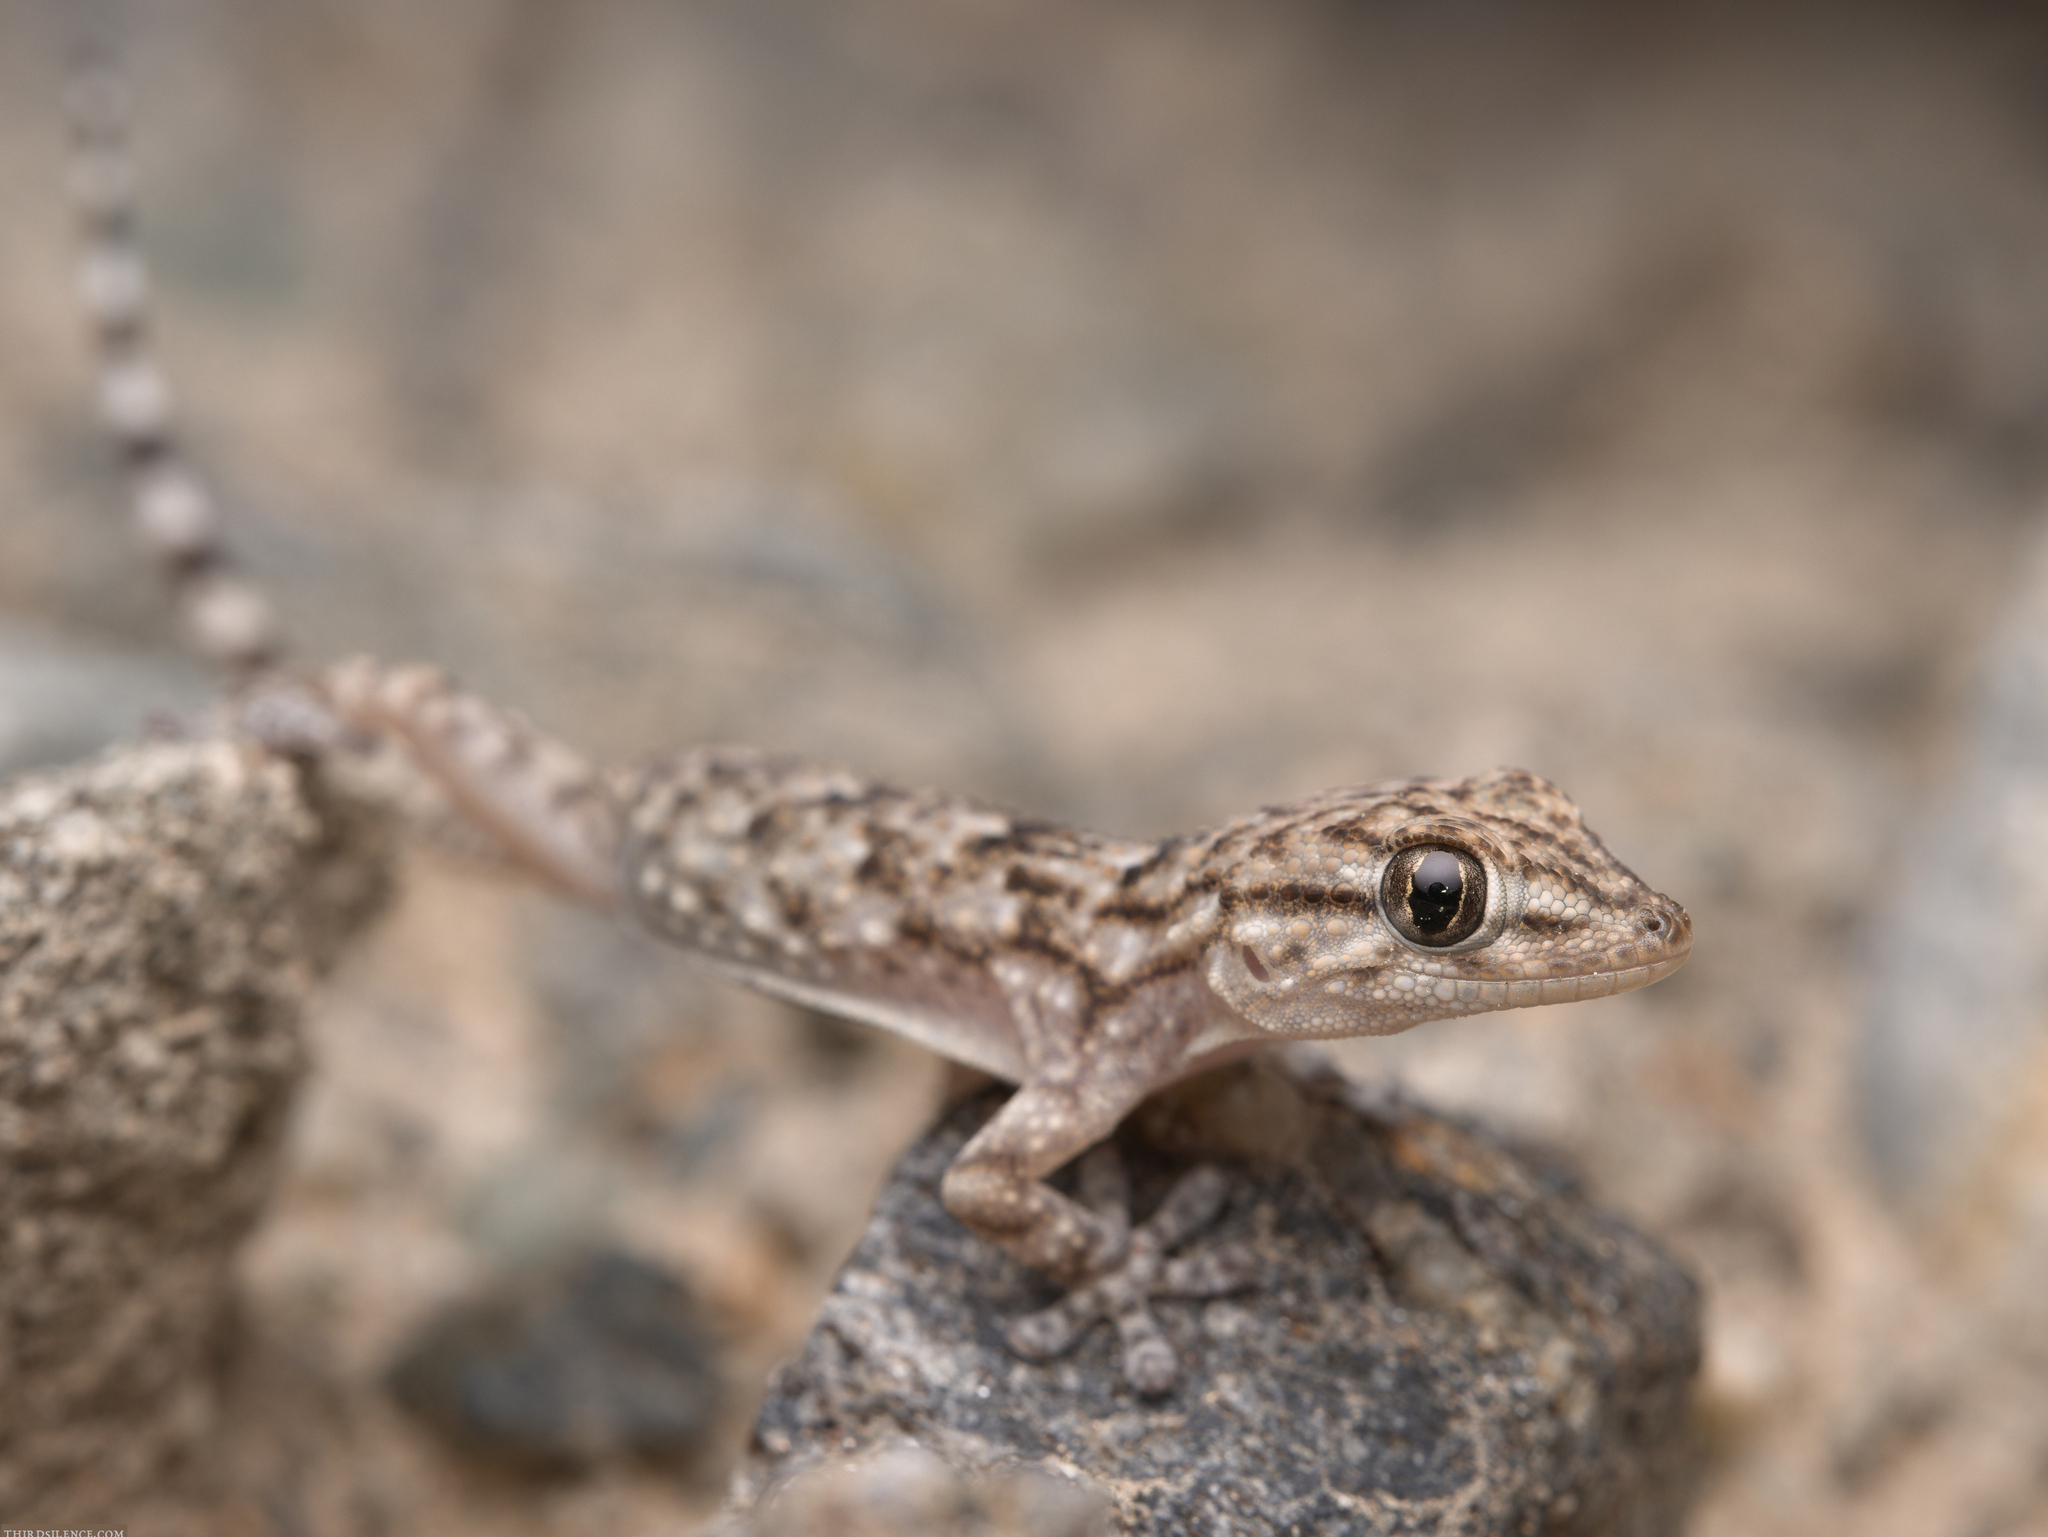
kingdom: Animalia
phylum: Chordata
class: Squamata
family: Phyllodactylidae
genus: Tarentola
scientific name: Tarentola mauritanica
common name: Moorish gecko
